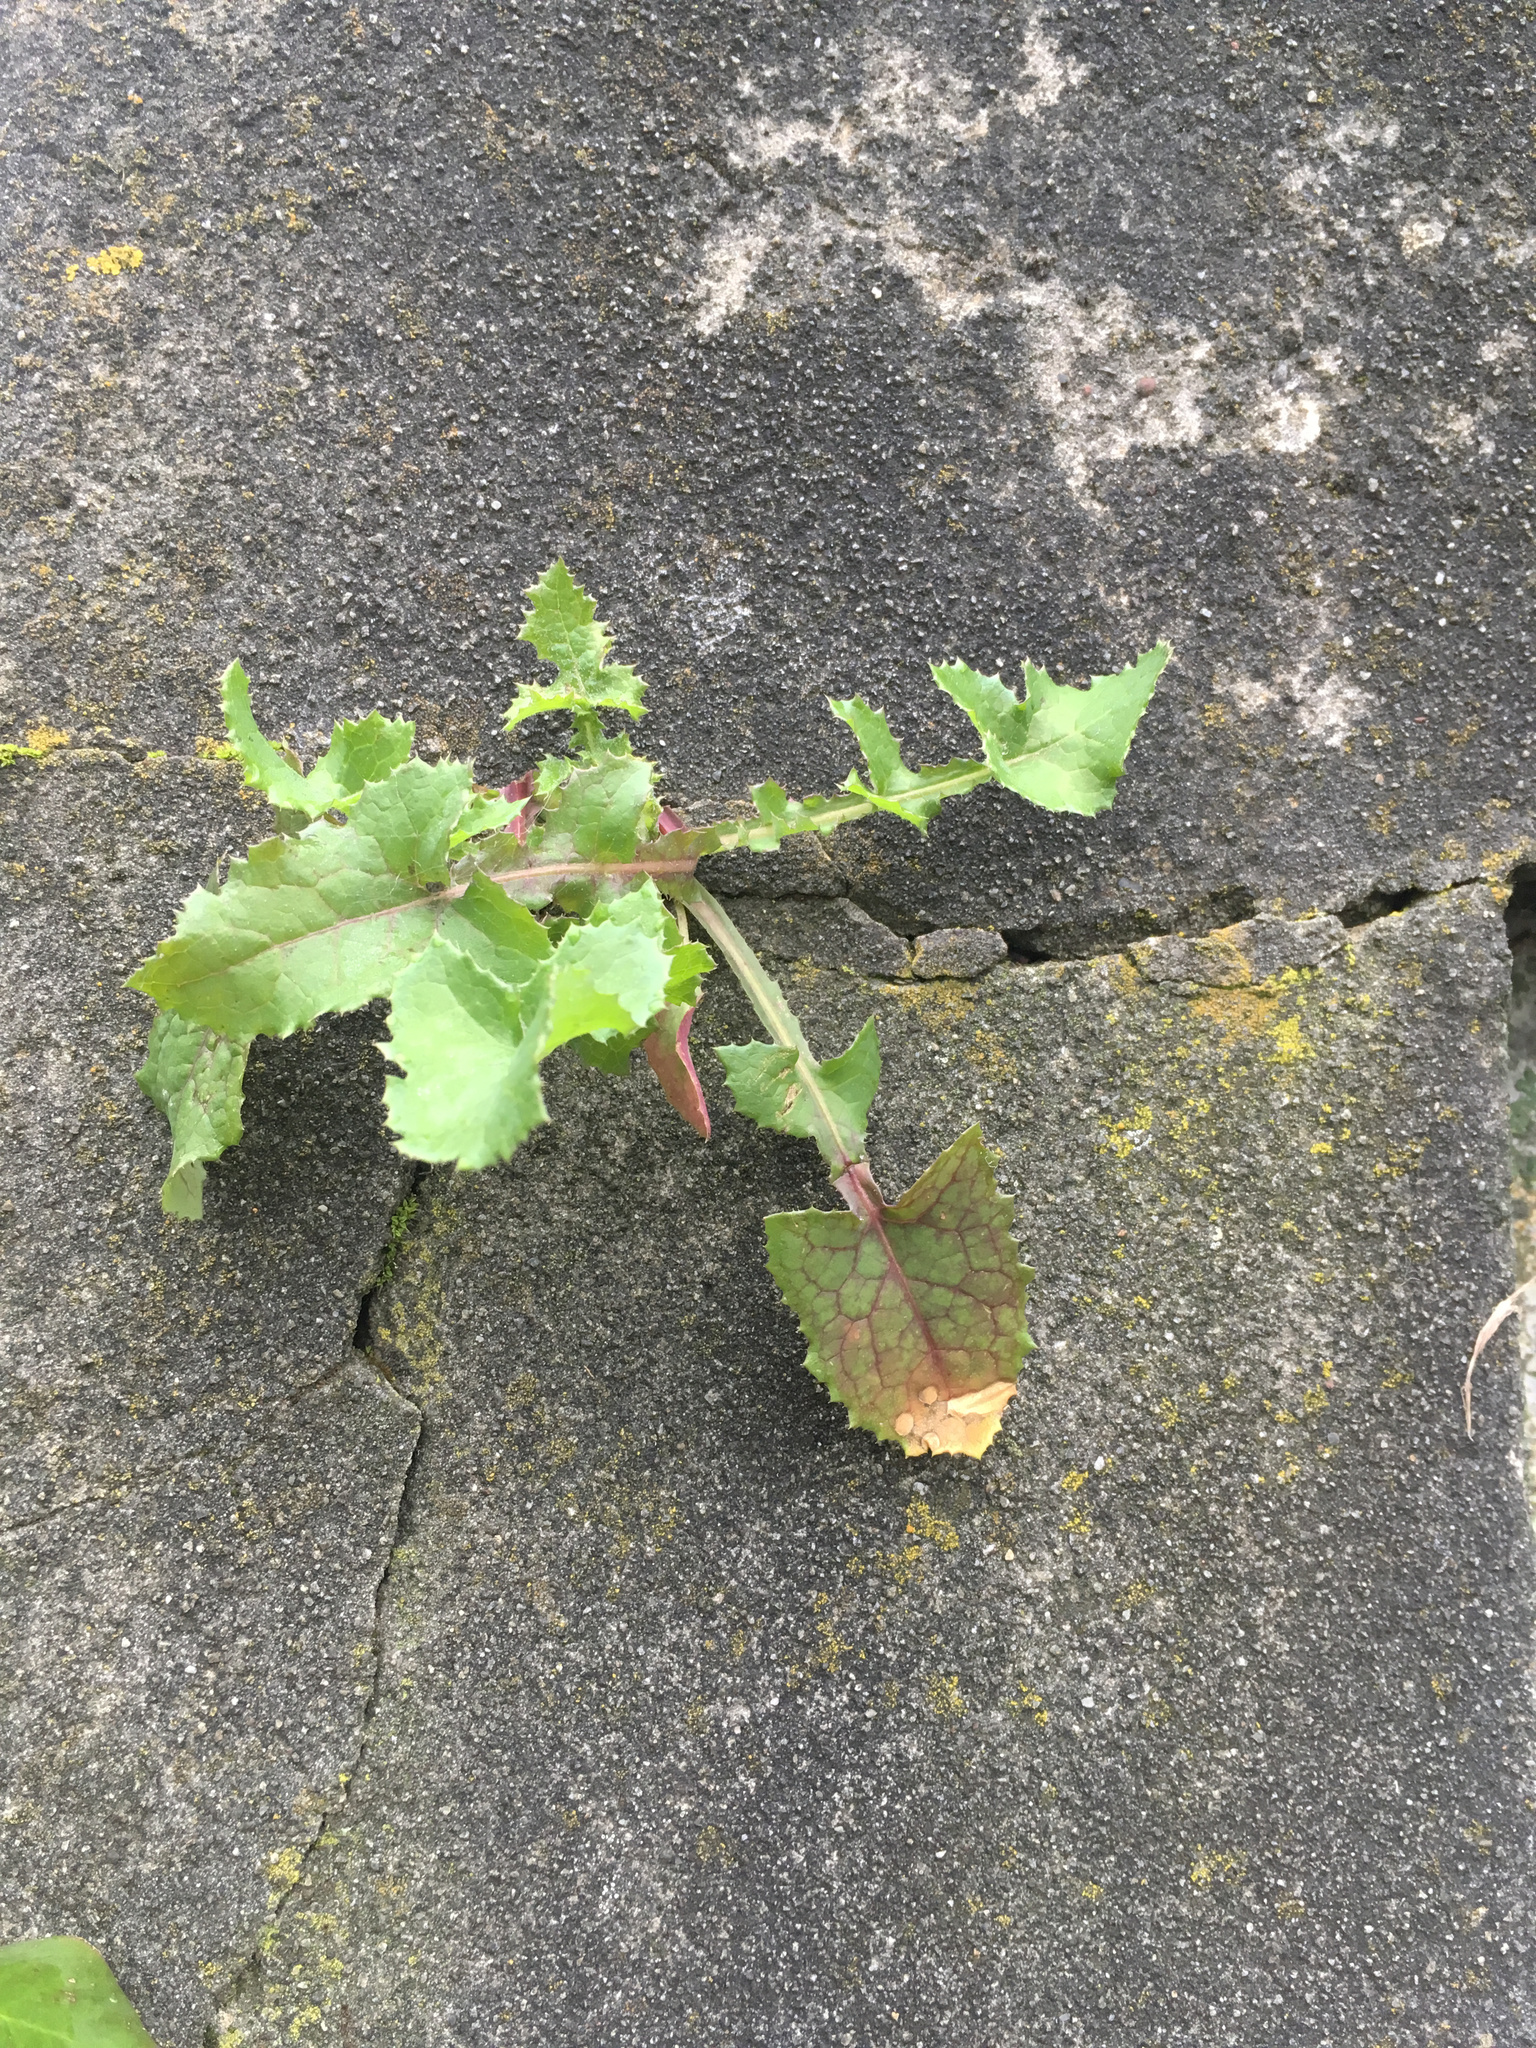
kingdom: Plantae
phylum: Tracheophyta
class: Magnoliopsida
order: Asterales
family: Asteraceae
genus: Sonchus
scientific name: Sonchus oleraceus
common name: Common sowthistle
